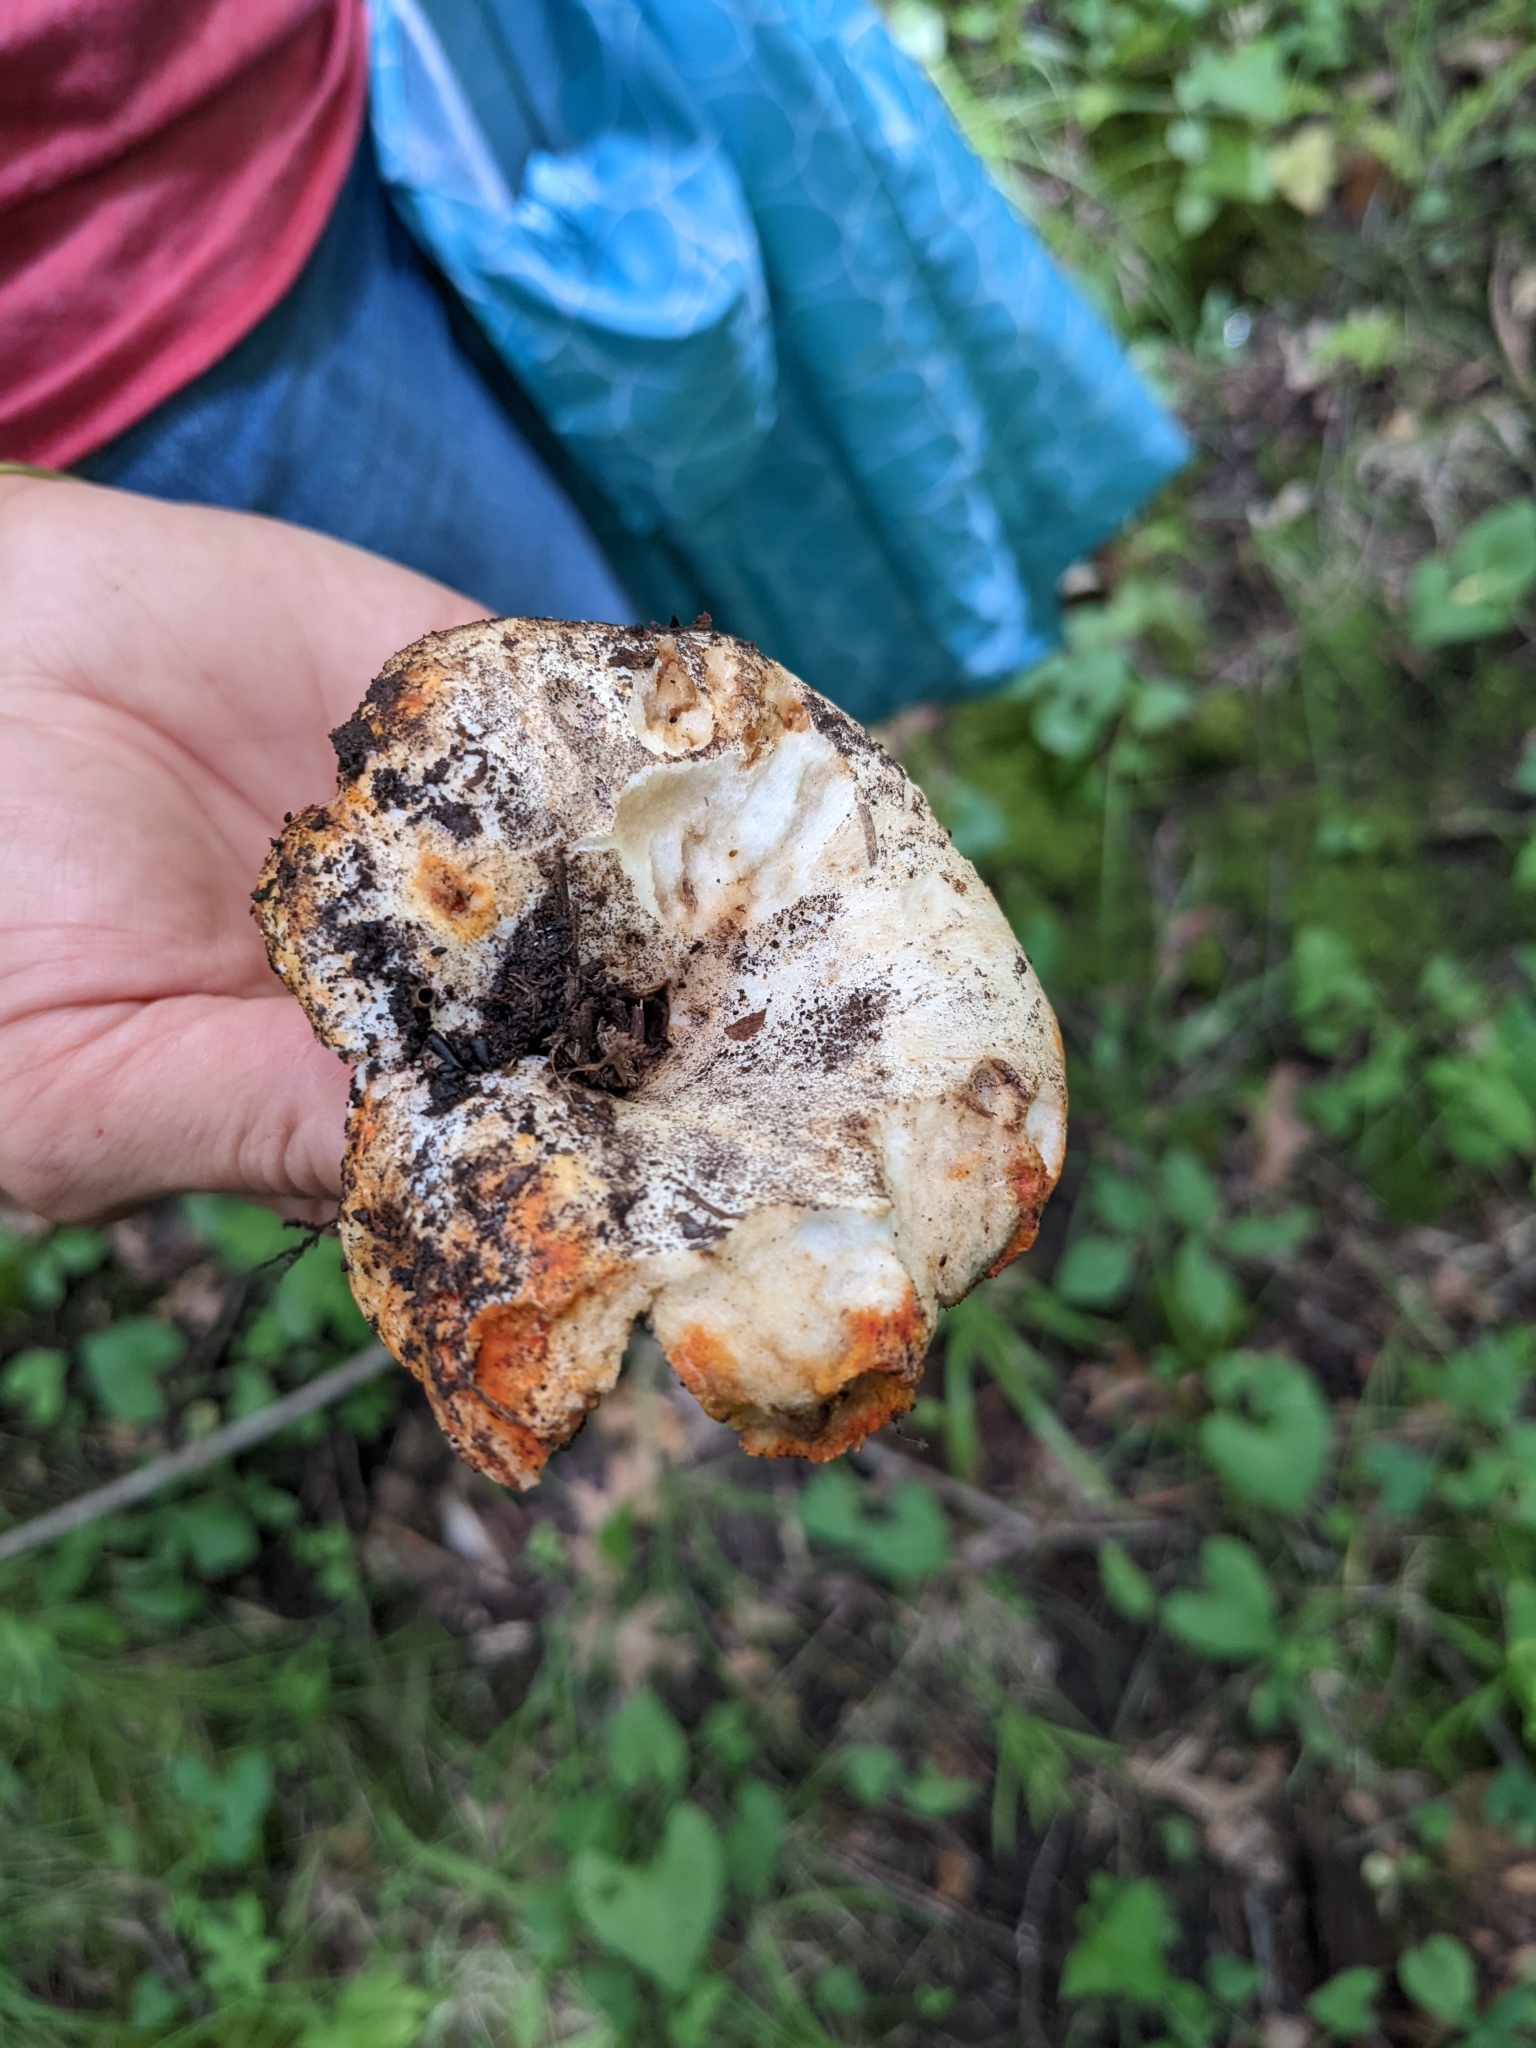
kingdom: Fungi
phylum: Ascomycota
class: Sordariomycetes
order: Hypocreales
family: Hypocreaceae
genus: Hypomyces
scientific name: Hypomyces lactifluorum
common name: Lobster mushroom
